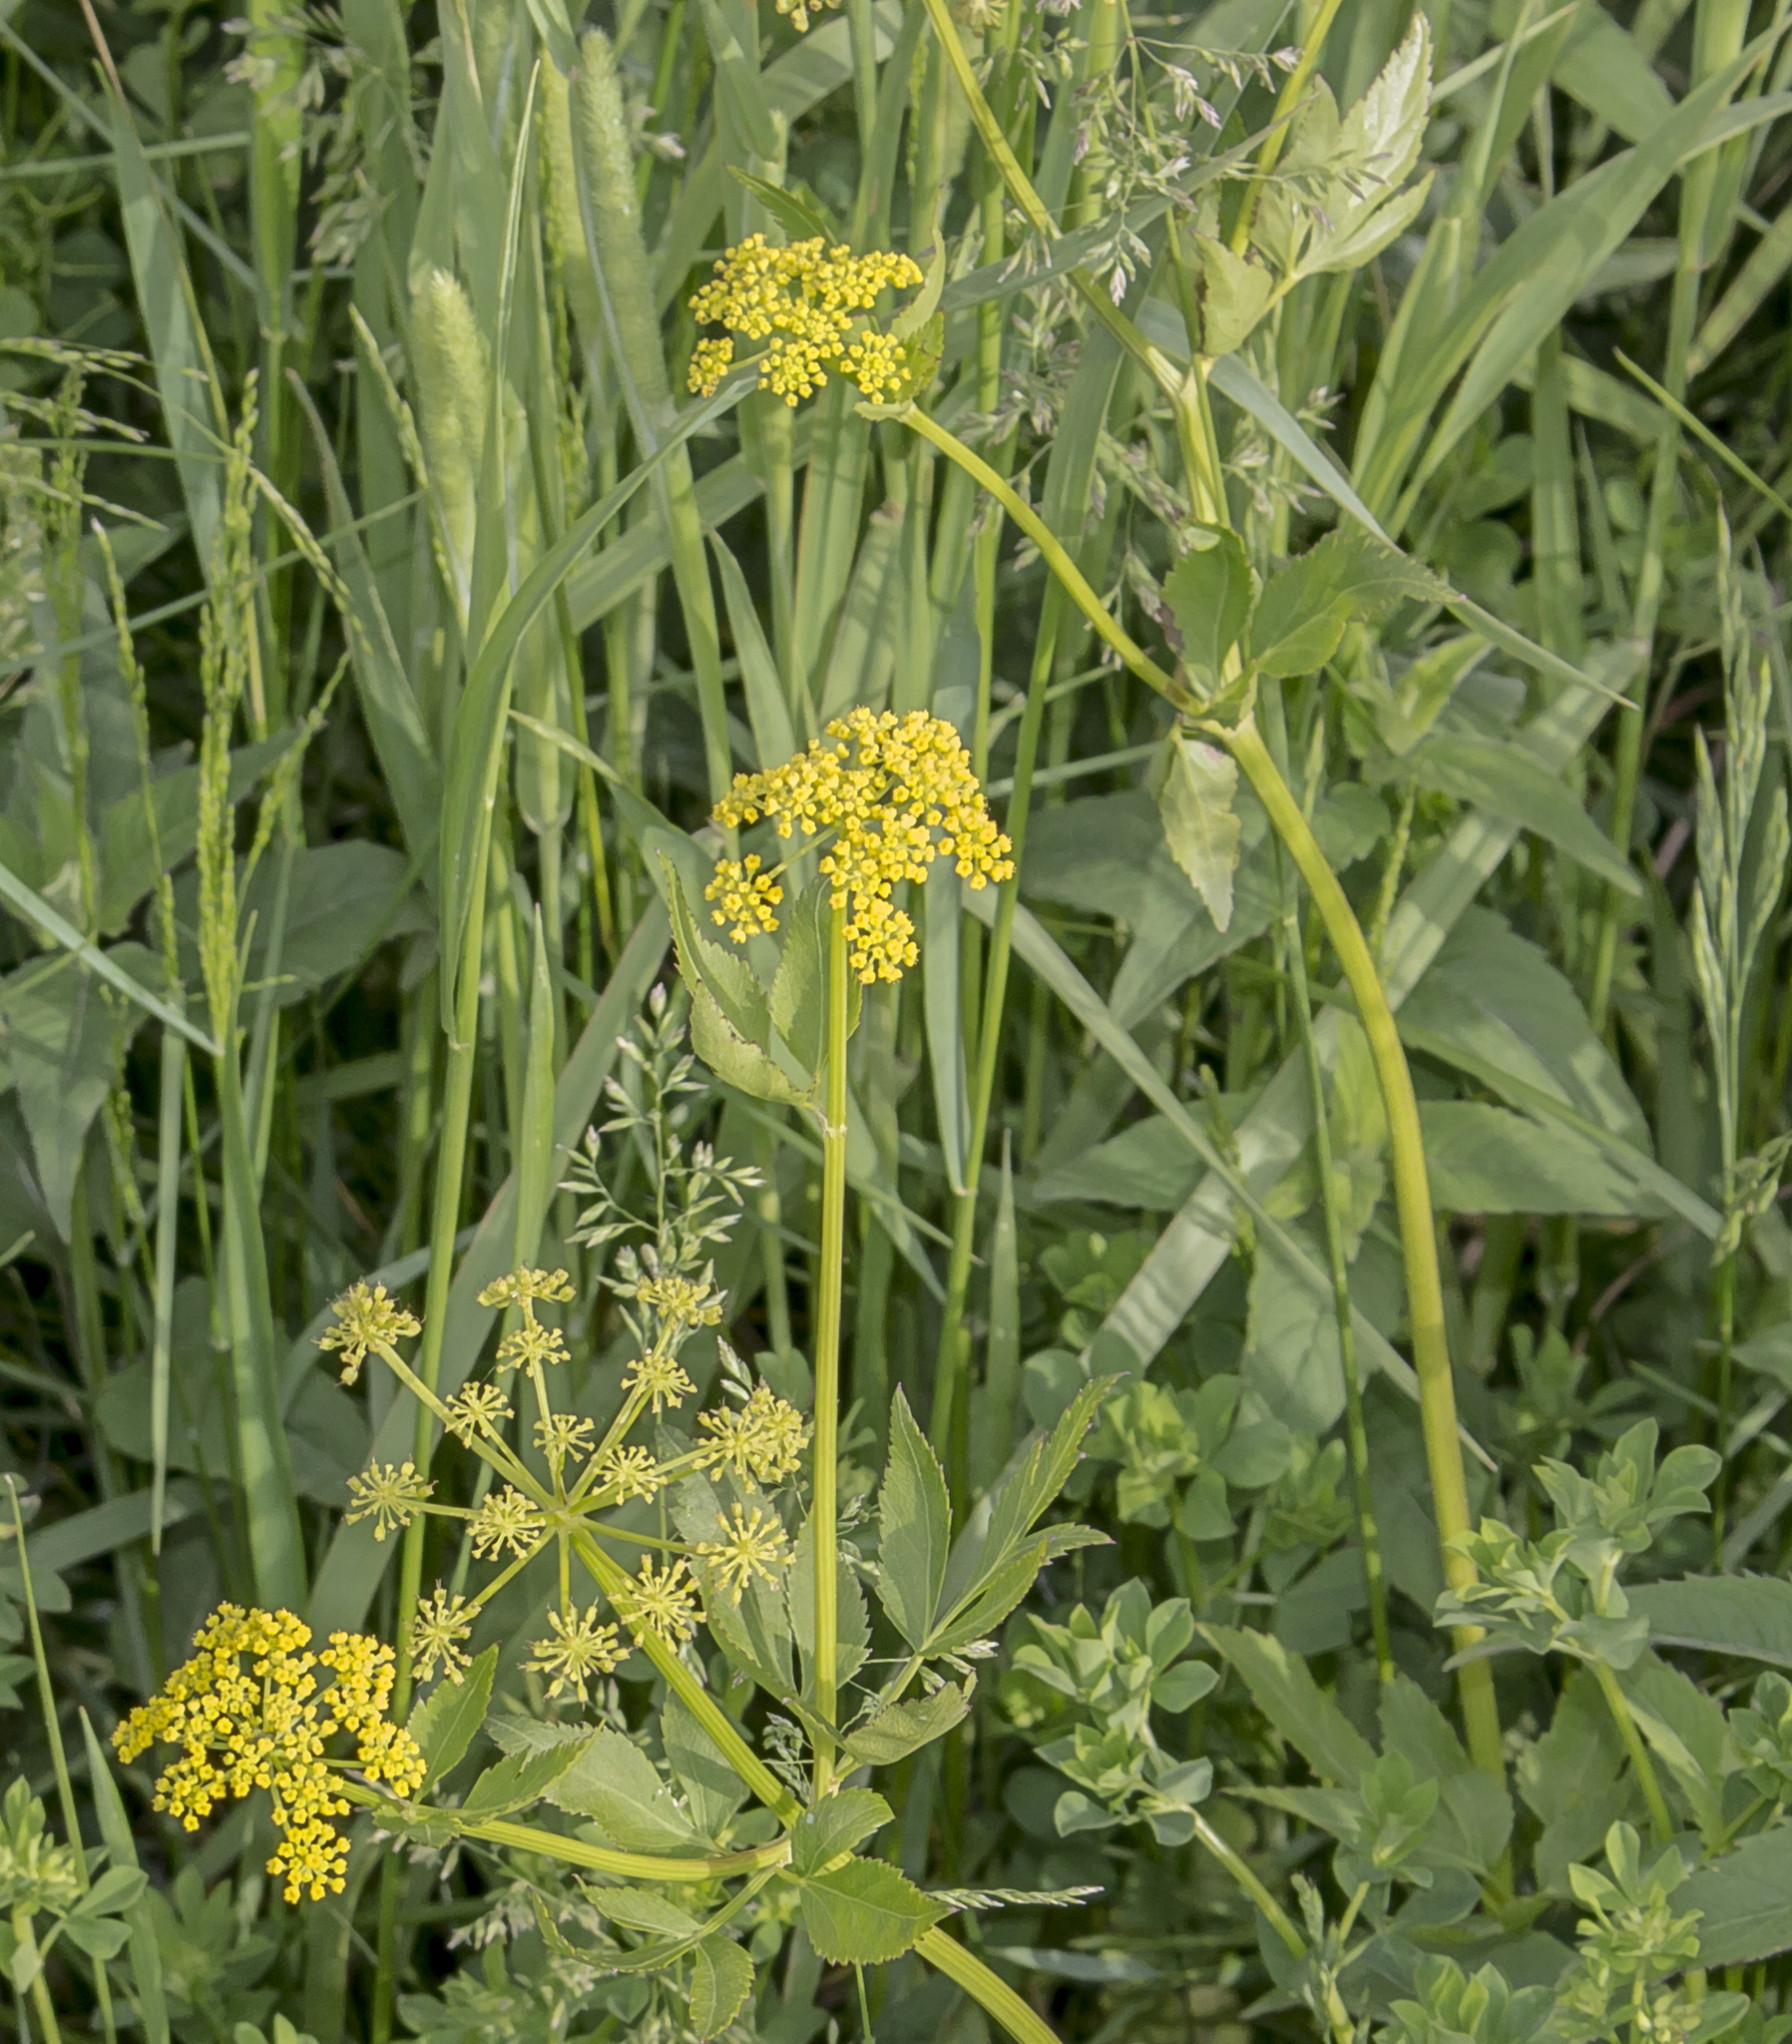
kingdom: Plantae
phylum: Tracheophyta
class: Magnoliopsida
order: Apiales
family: Apiaceae
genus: Zizia
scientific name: Zizia aurea
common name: Golden alexanders
